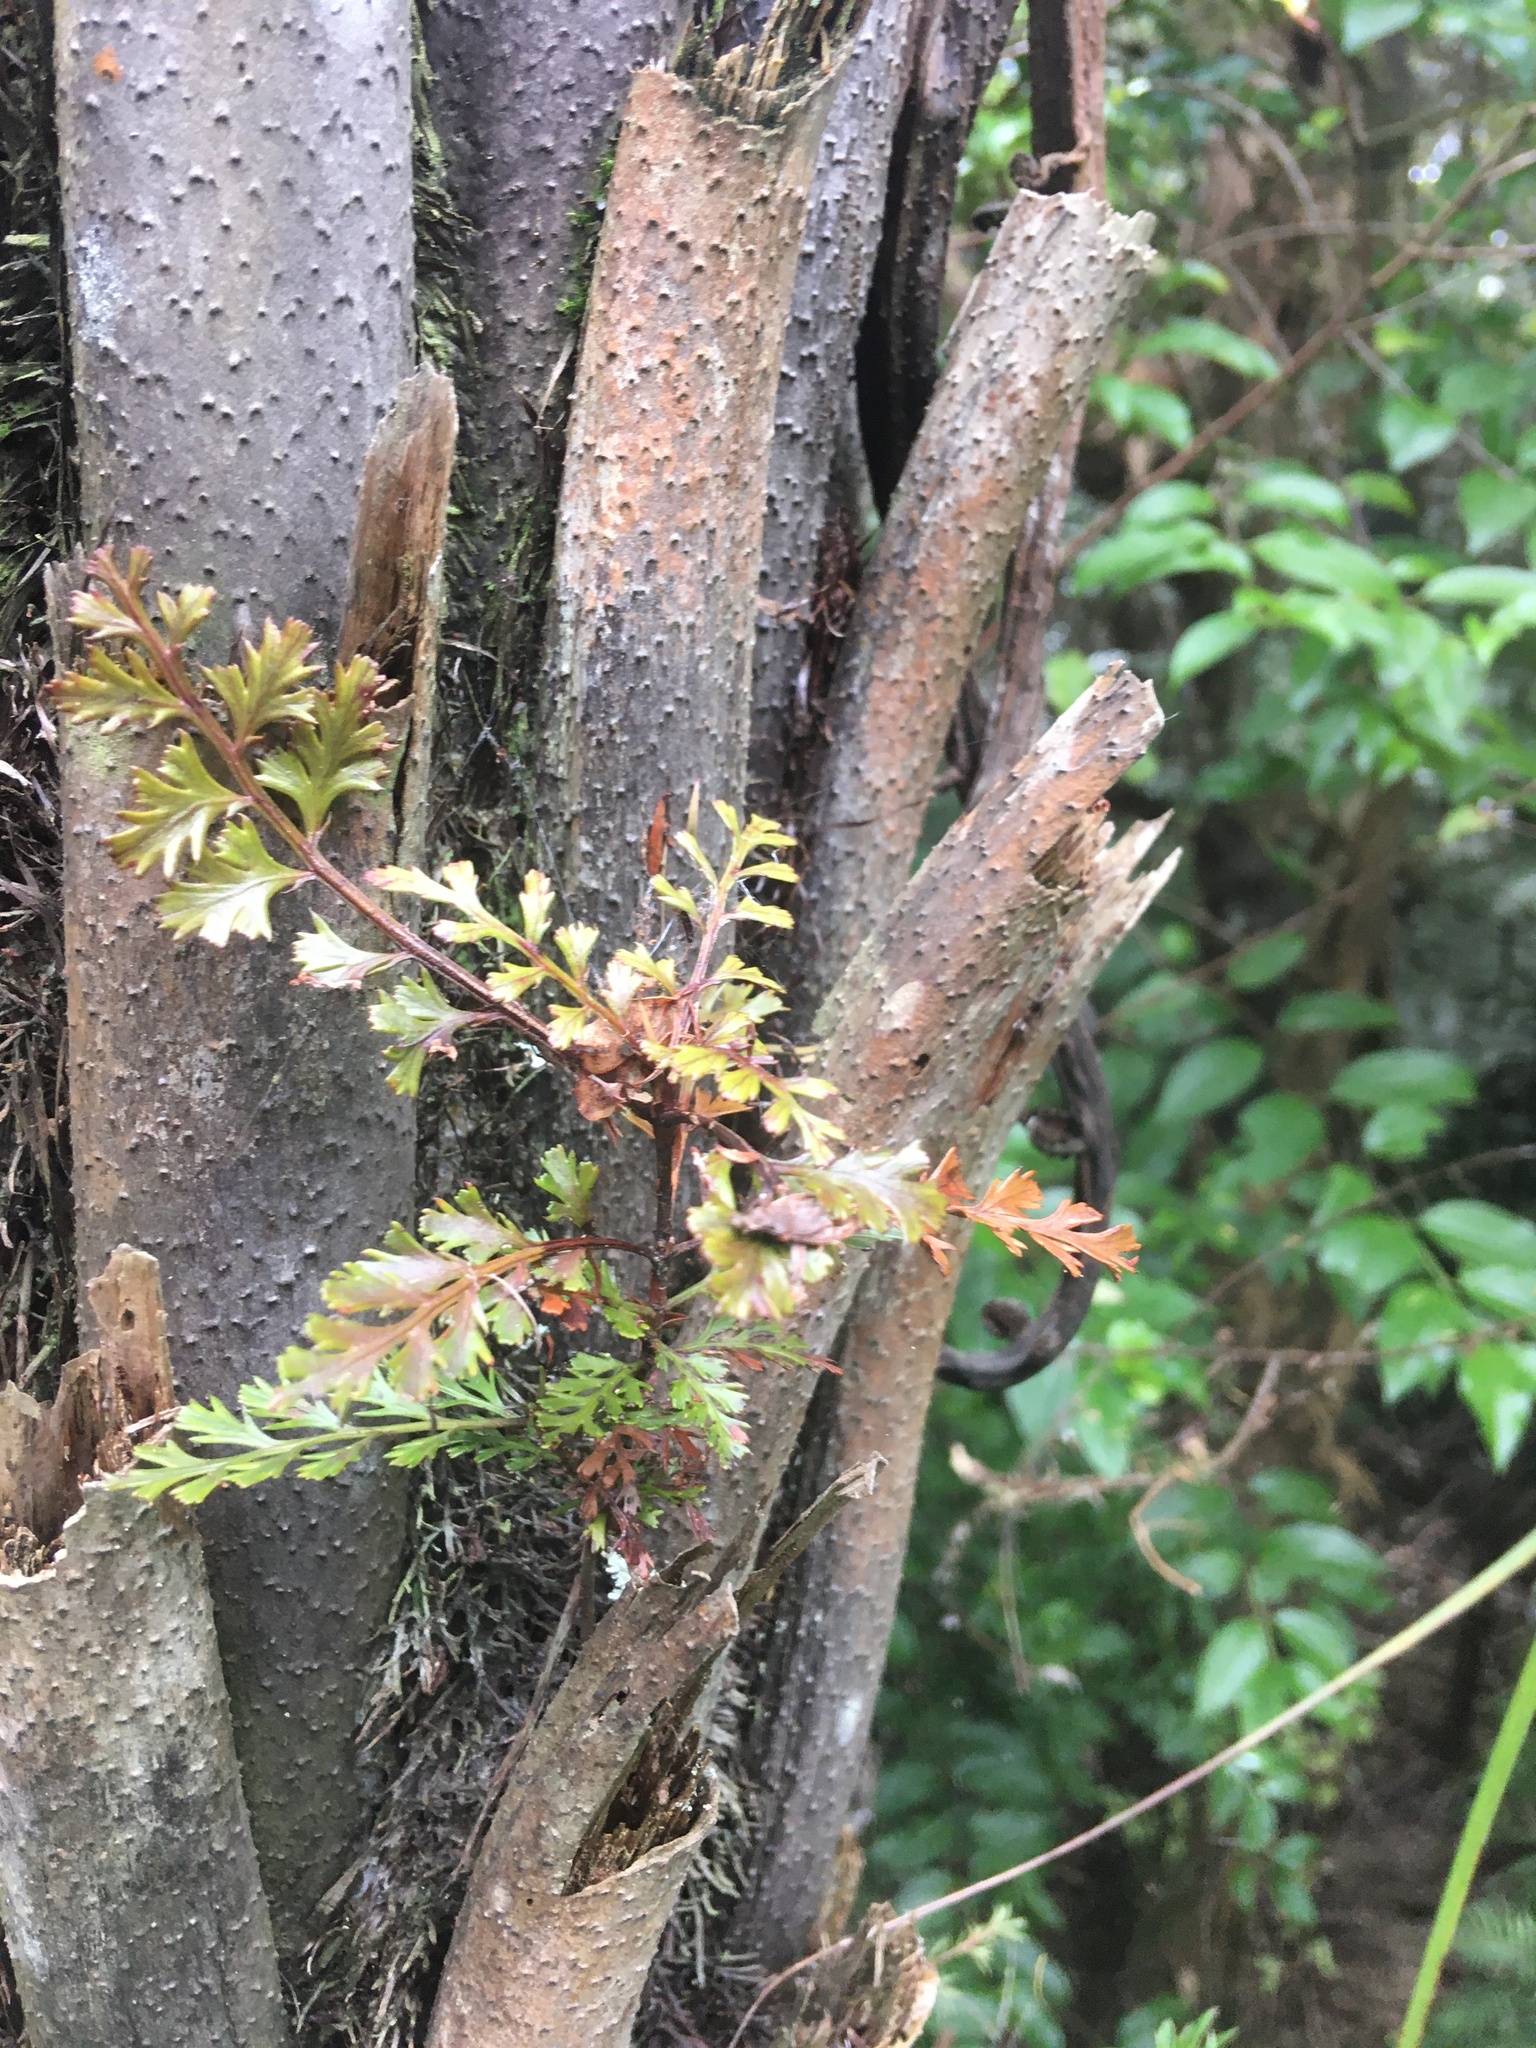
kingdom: Plantae
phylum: Tracheophyta
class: Pinopsida
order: Pinales
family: Phyllocladaceae
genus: Phyllocladus
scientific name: Phyllocladus trichomanoides
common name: Celery pine
